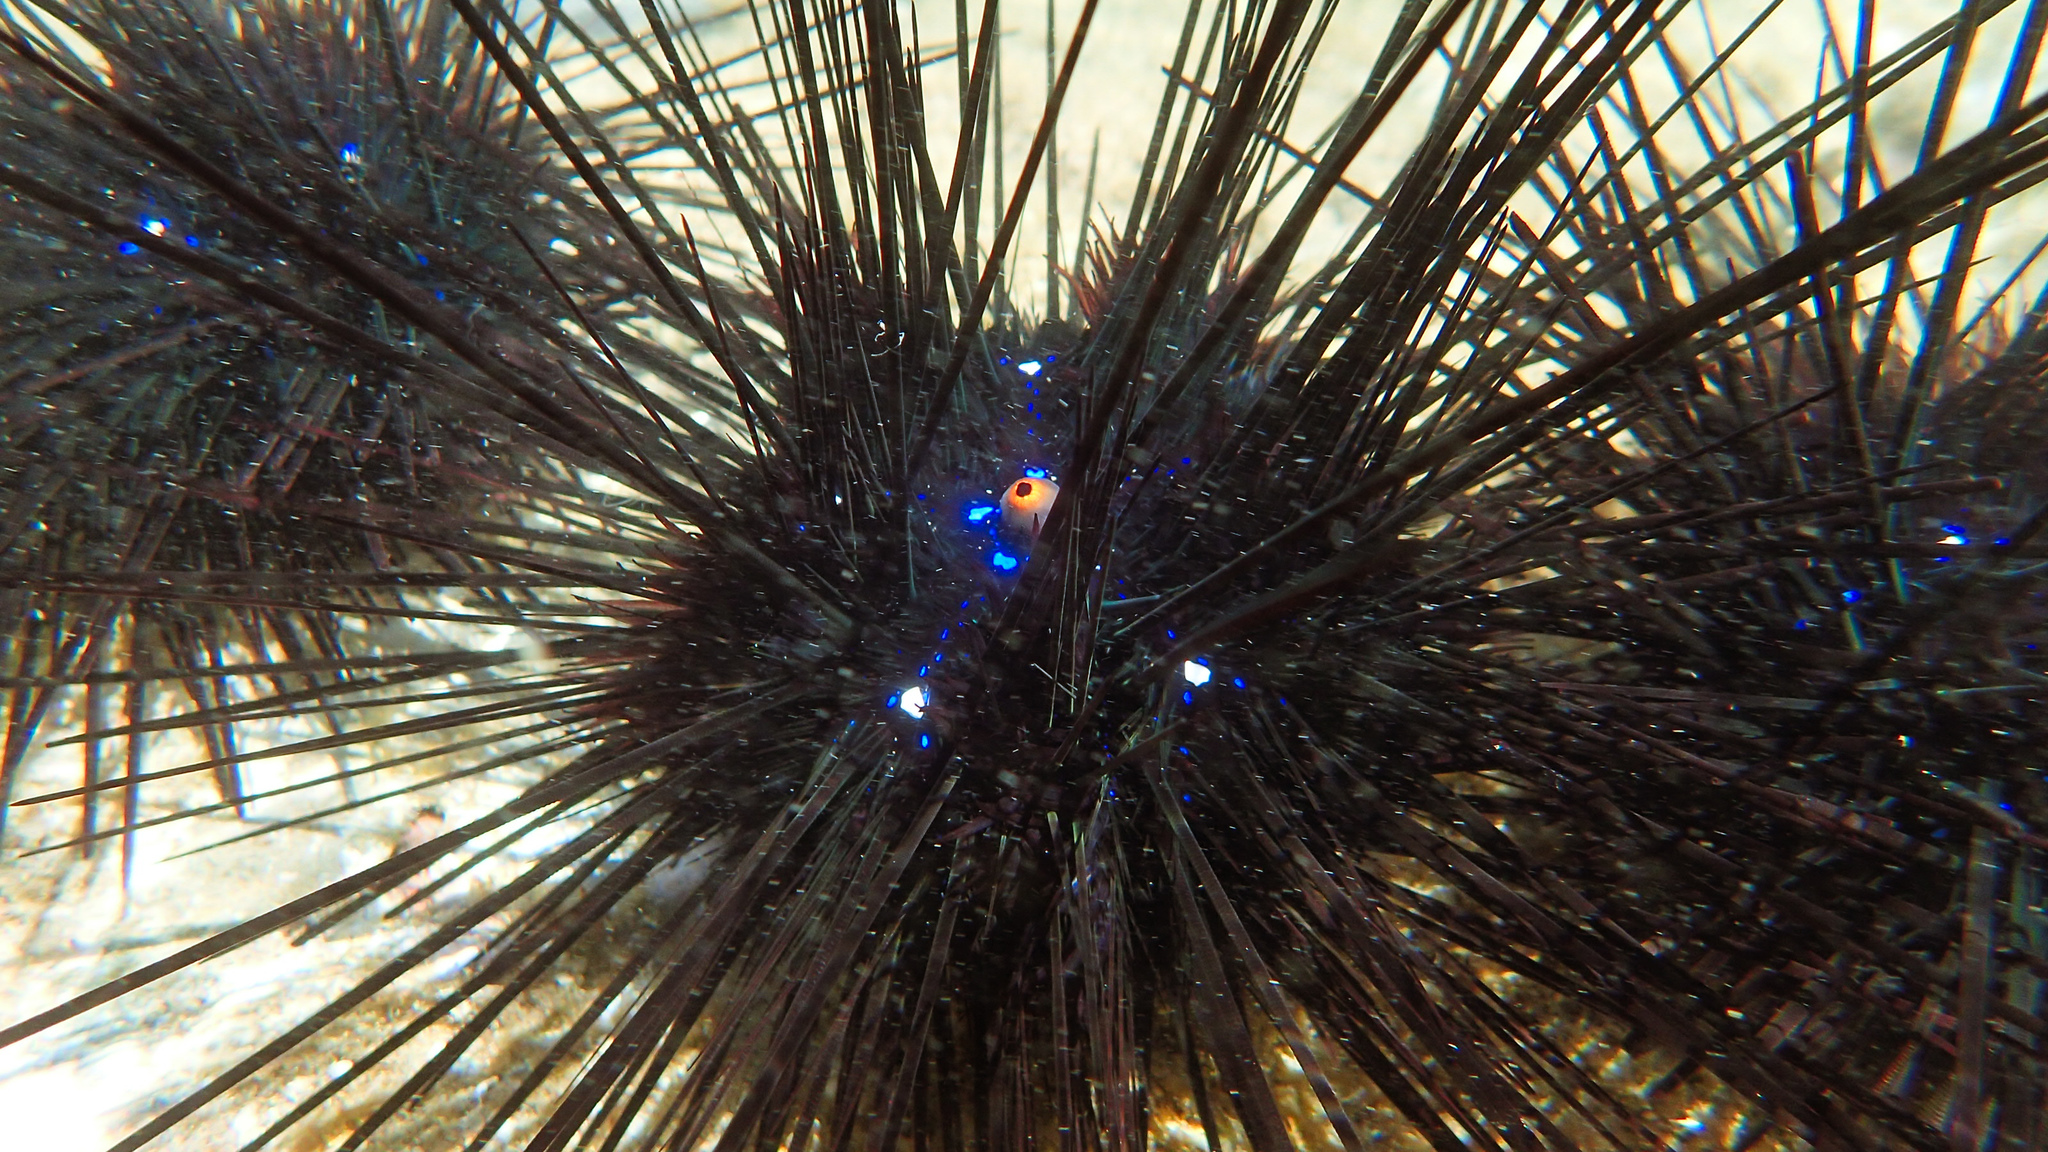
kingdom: Animalia
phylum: Echinodermata
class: Echinoidea
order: Diadematoida
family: Diadematidae
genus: Diadema
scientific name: Diadema setosum
